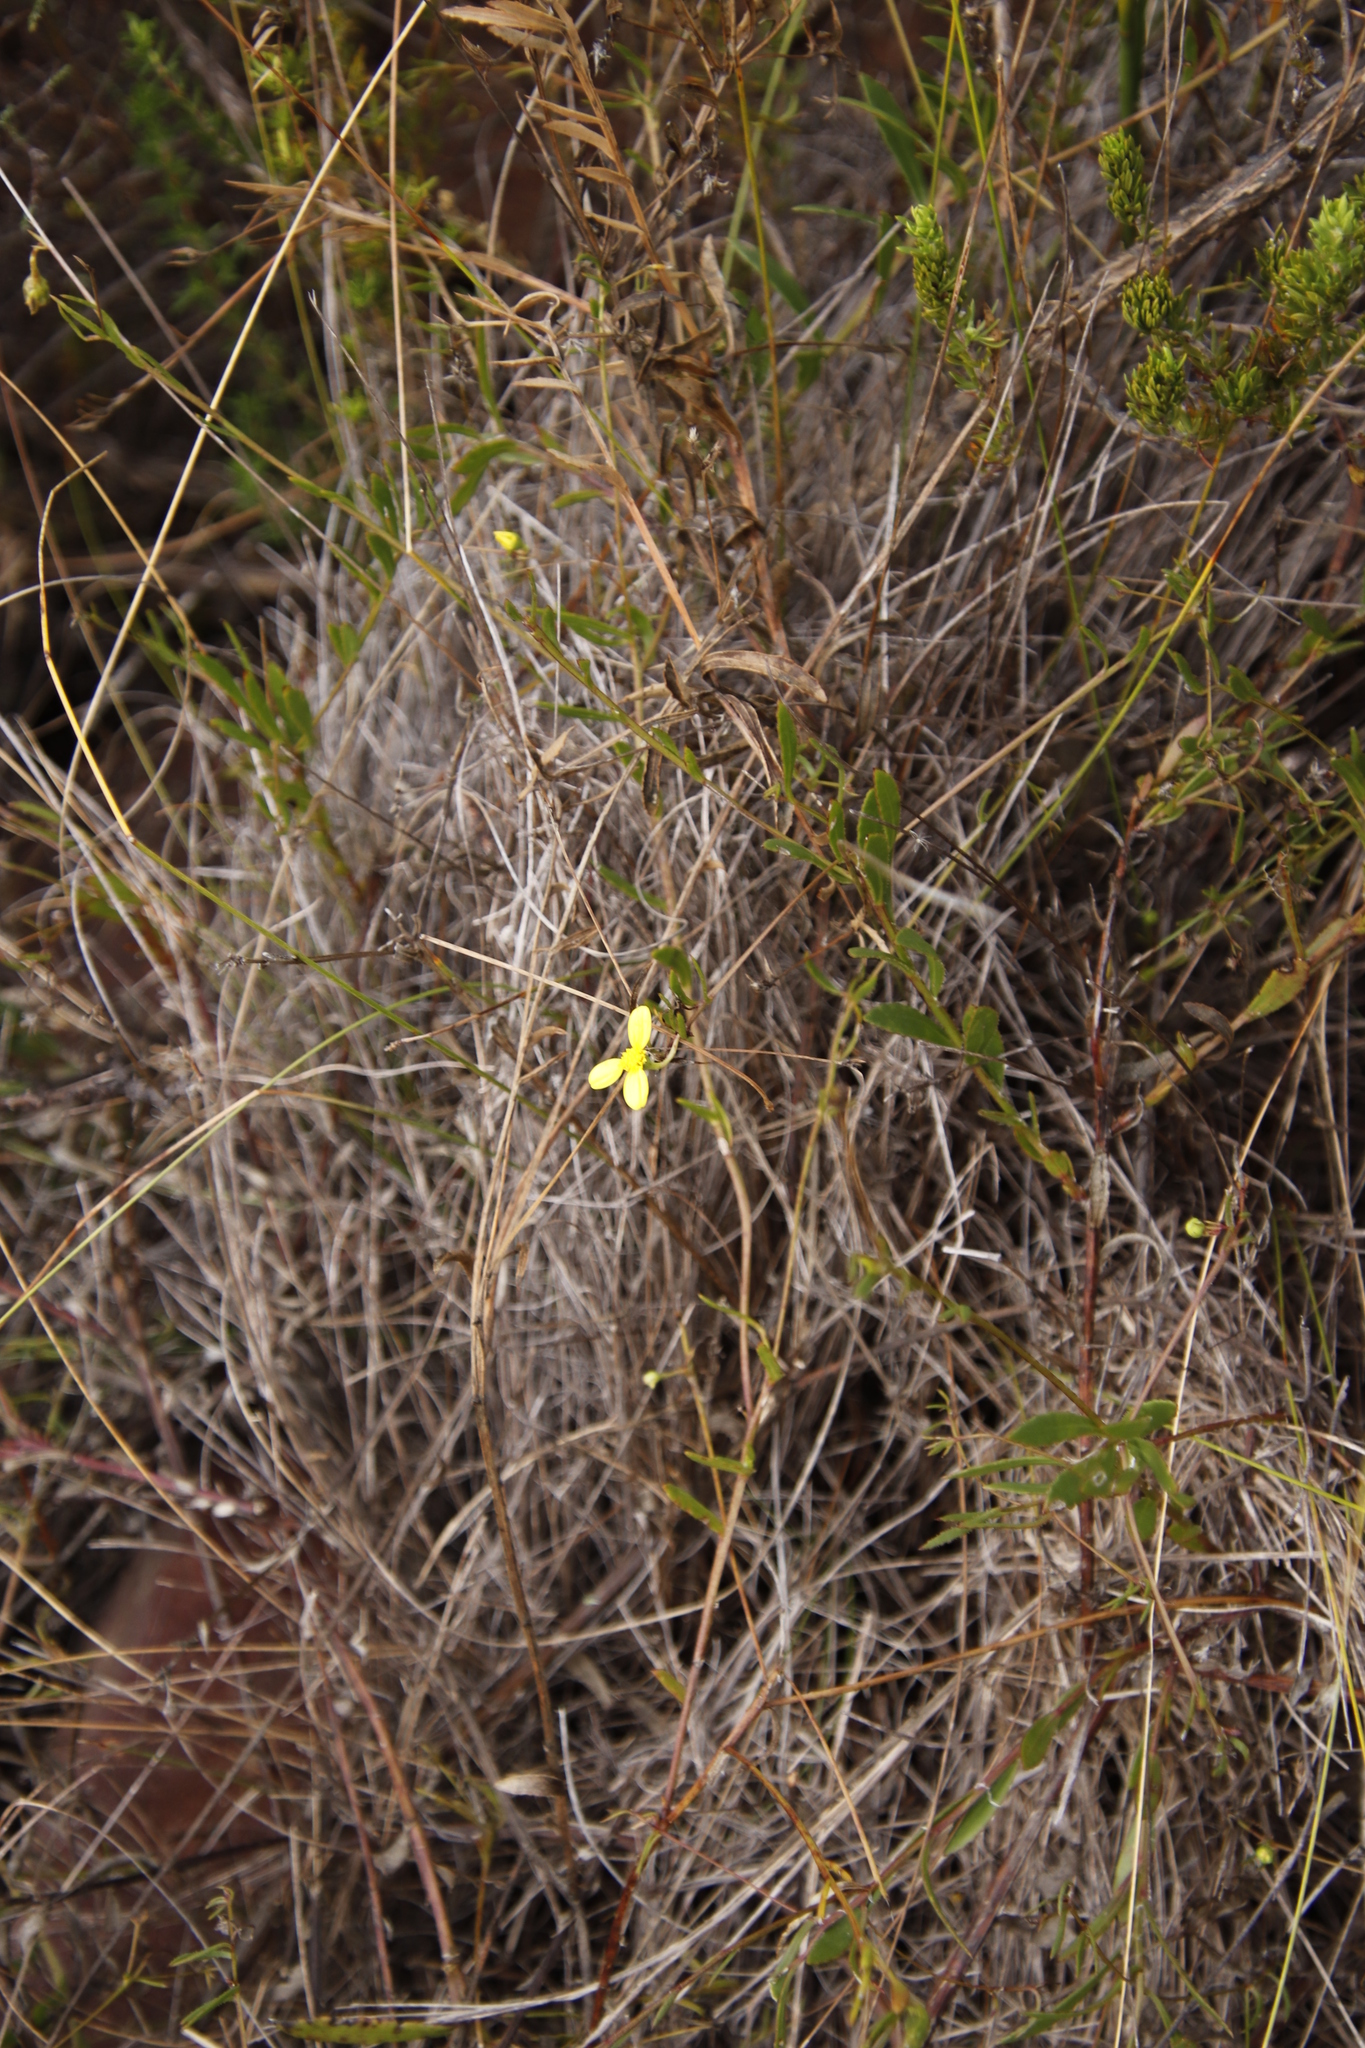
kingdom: Plantae
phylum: Tracheophyta
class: Magnoliopsida
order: Asterales
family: Asteraceae
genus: Osteospermum
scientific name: Osteospermum ciliatum
